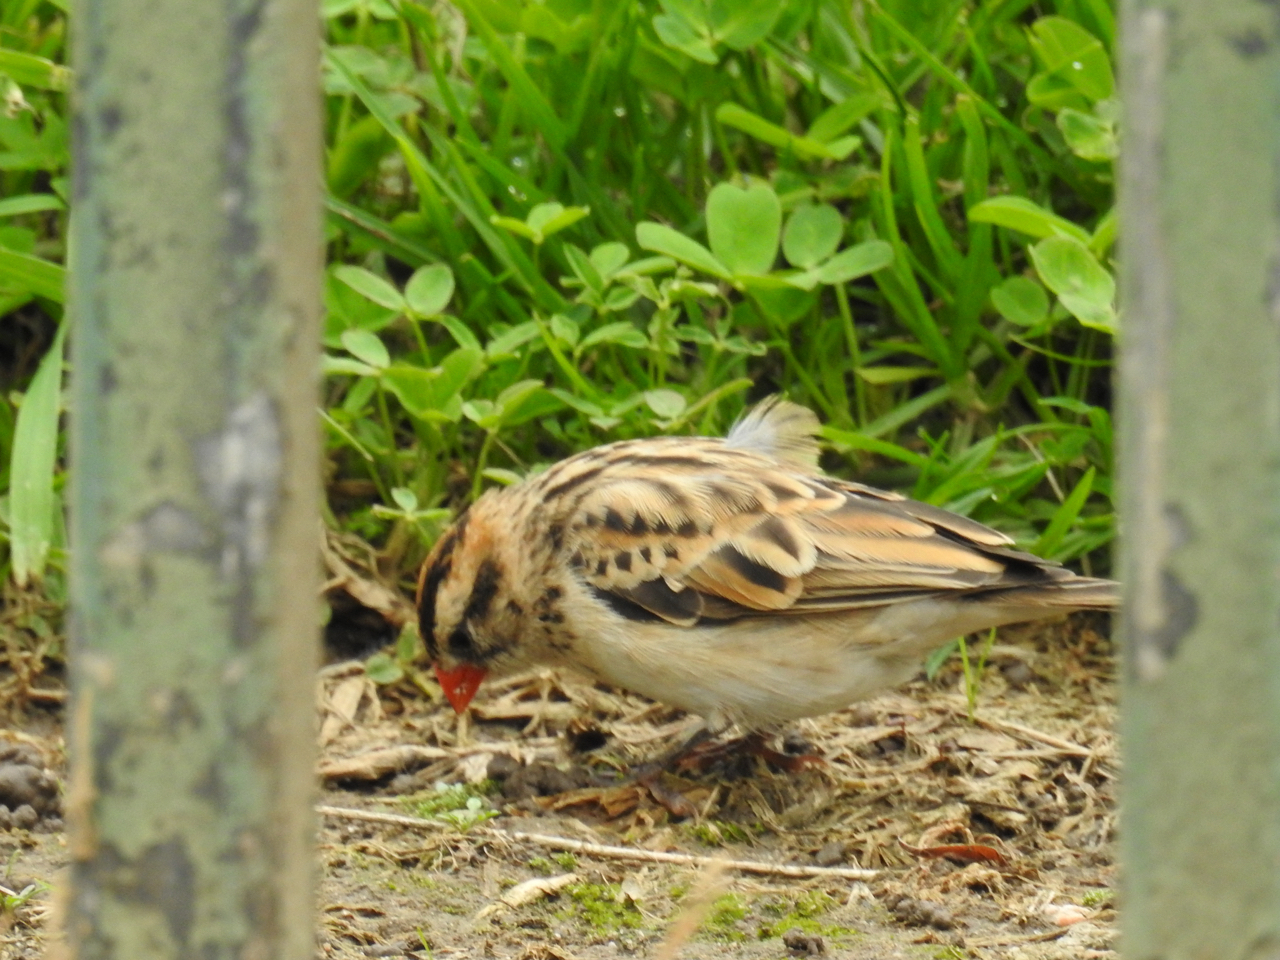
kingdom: Animalia
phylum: Chordata
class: Aves
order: Passeriformes
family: Viduidae
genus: Vidua
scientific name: Vidua macroura
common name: Pin-tailed whydah
